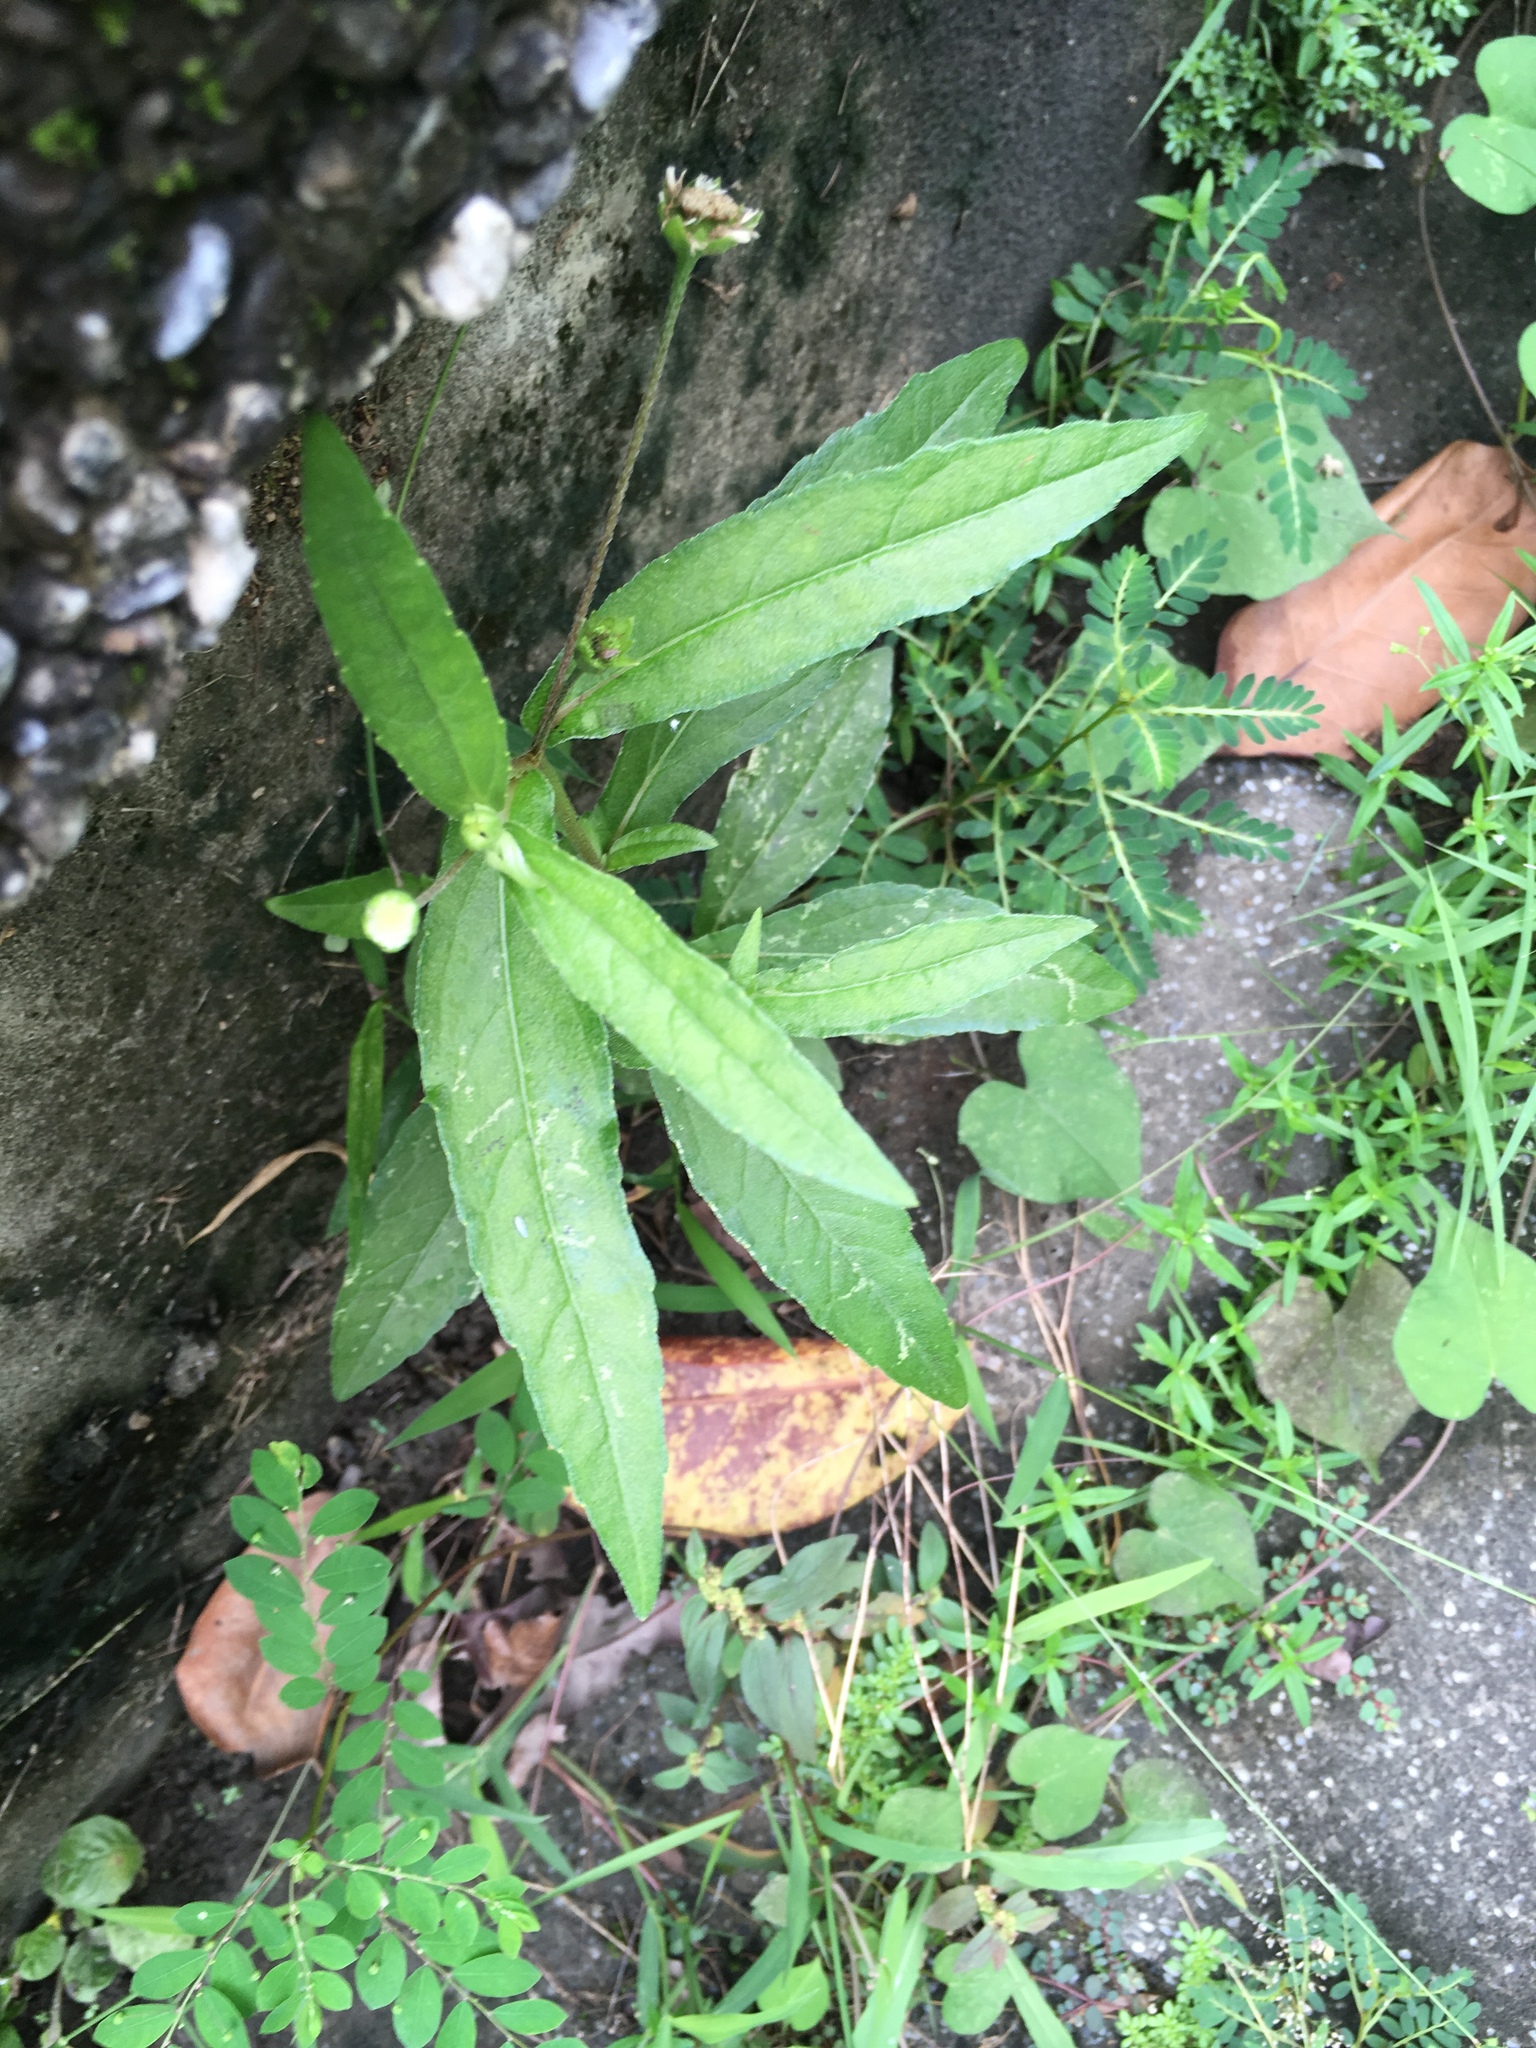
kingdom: Plantae
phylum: Tracheophyta
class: Magnoliopsida
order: Asterales
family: Asteraceae
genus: Eclipta
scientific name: Eclipta prostrata
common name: False daisy
